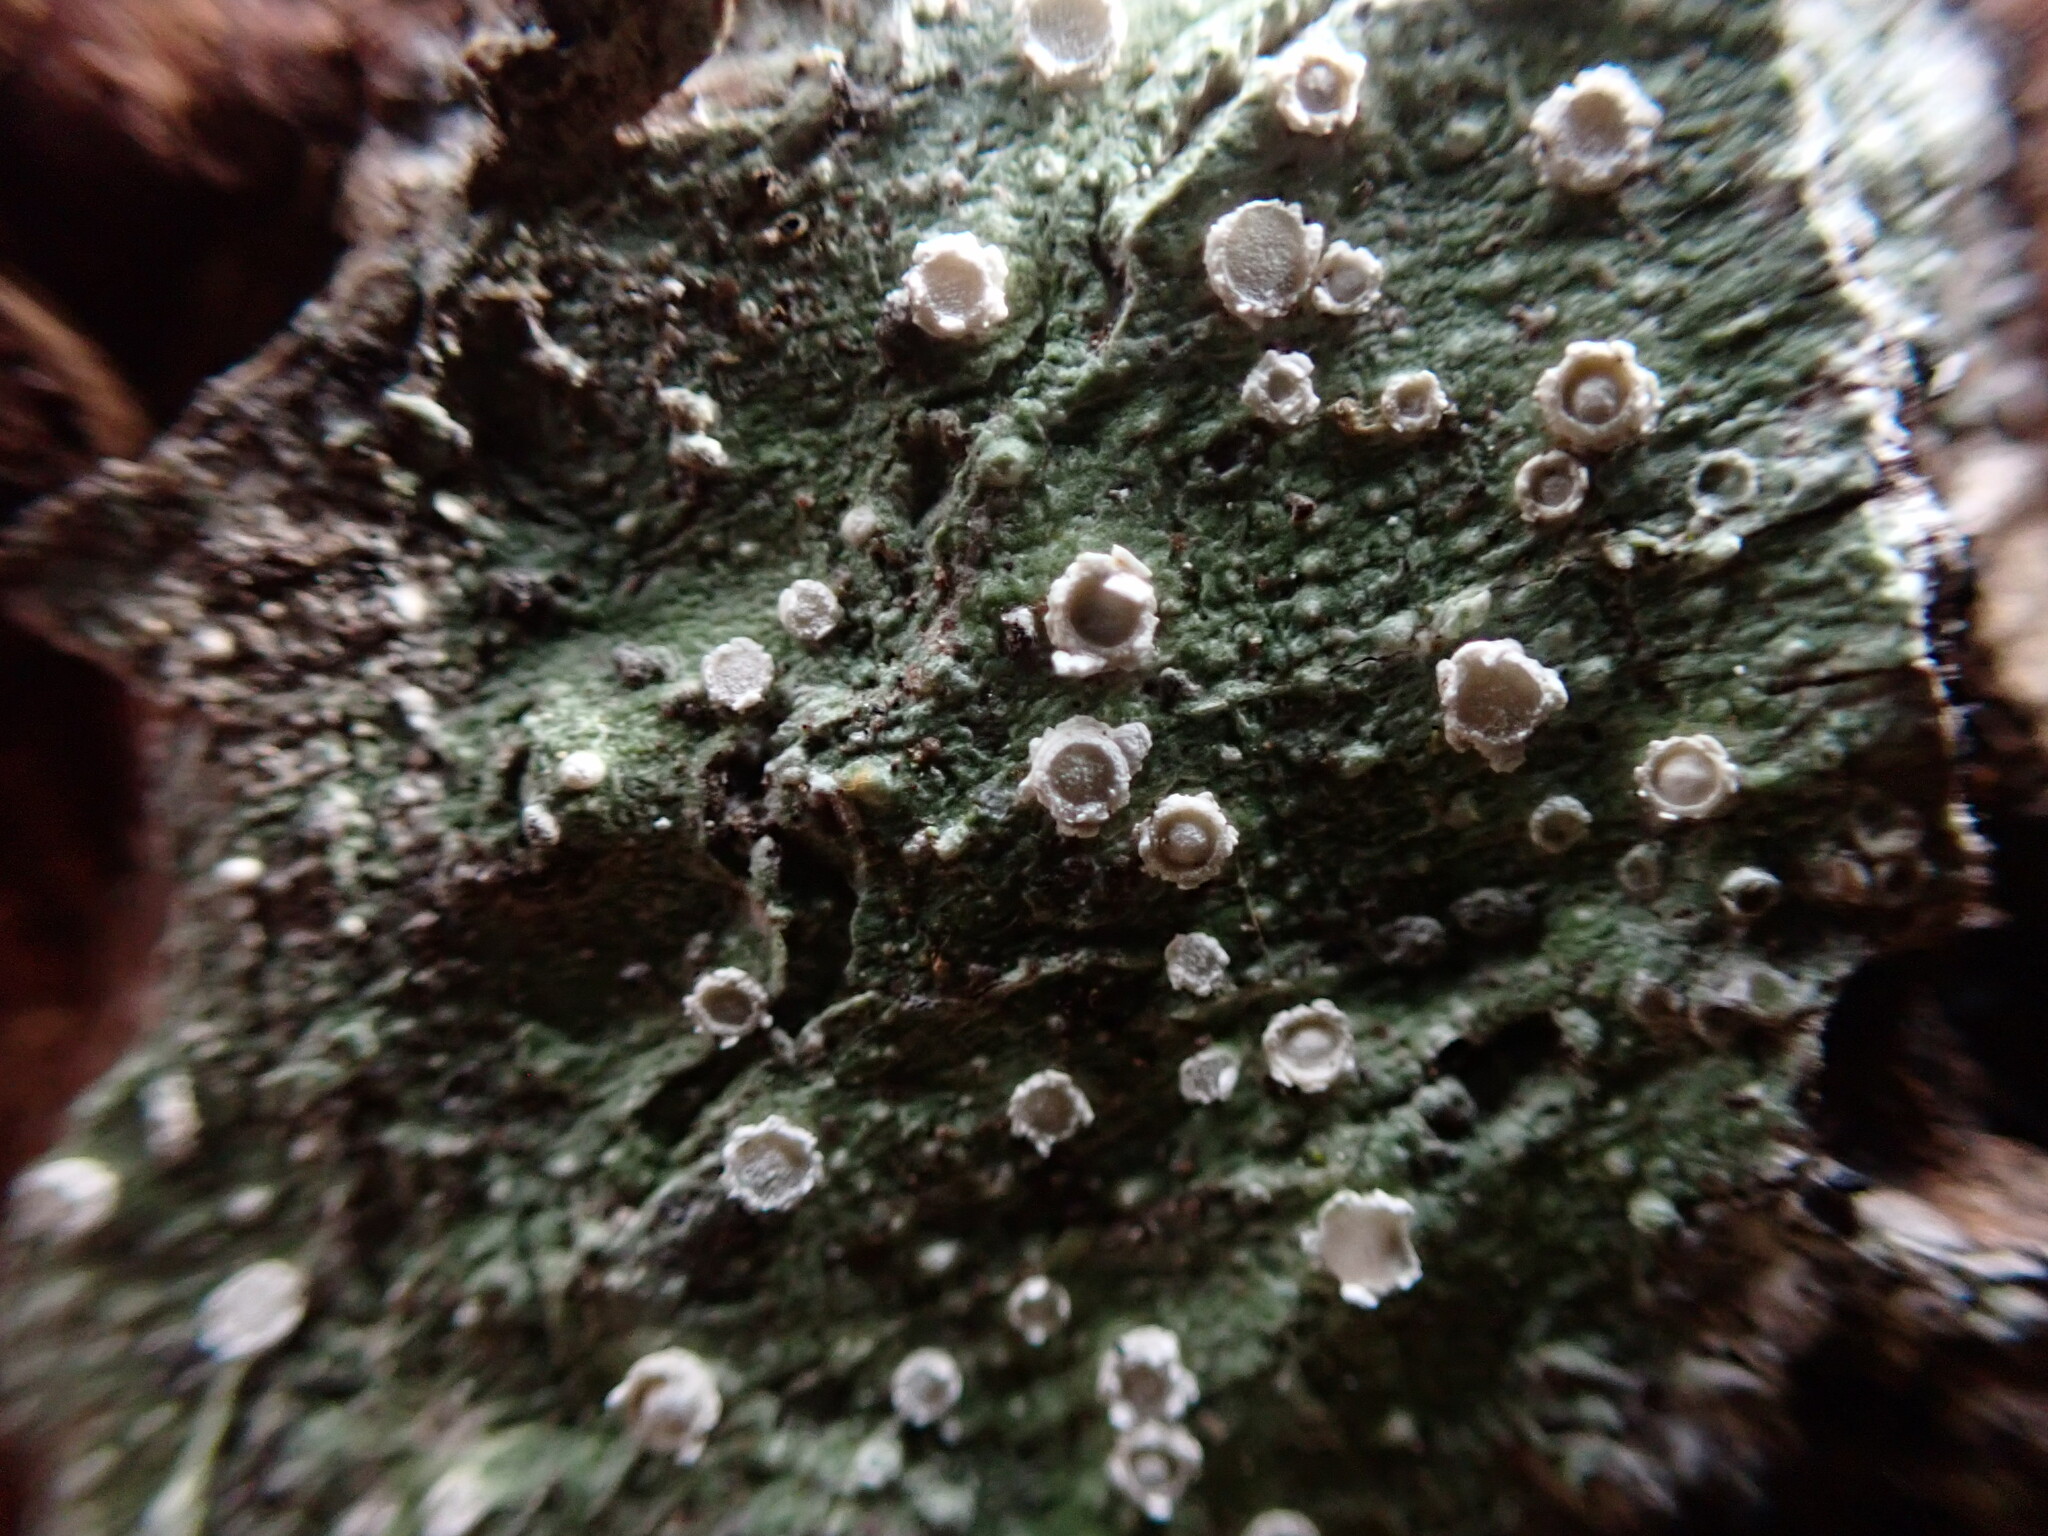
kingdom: Fungi
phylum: Ascomycota
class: Lecanoromycetes
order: Pertusariales
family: Pertusariaceae
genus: Pertusaria
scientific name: Pertusaria subambigens
